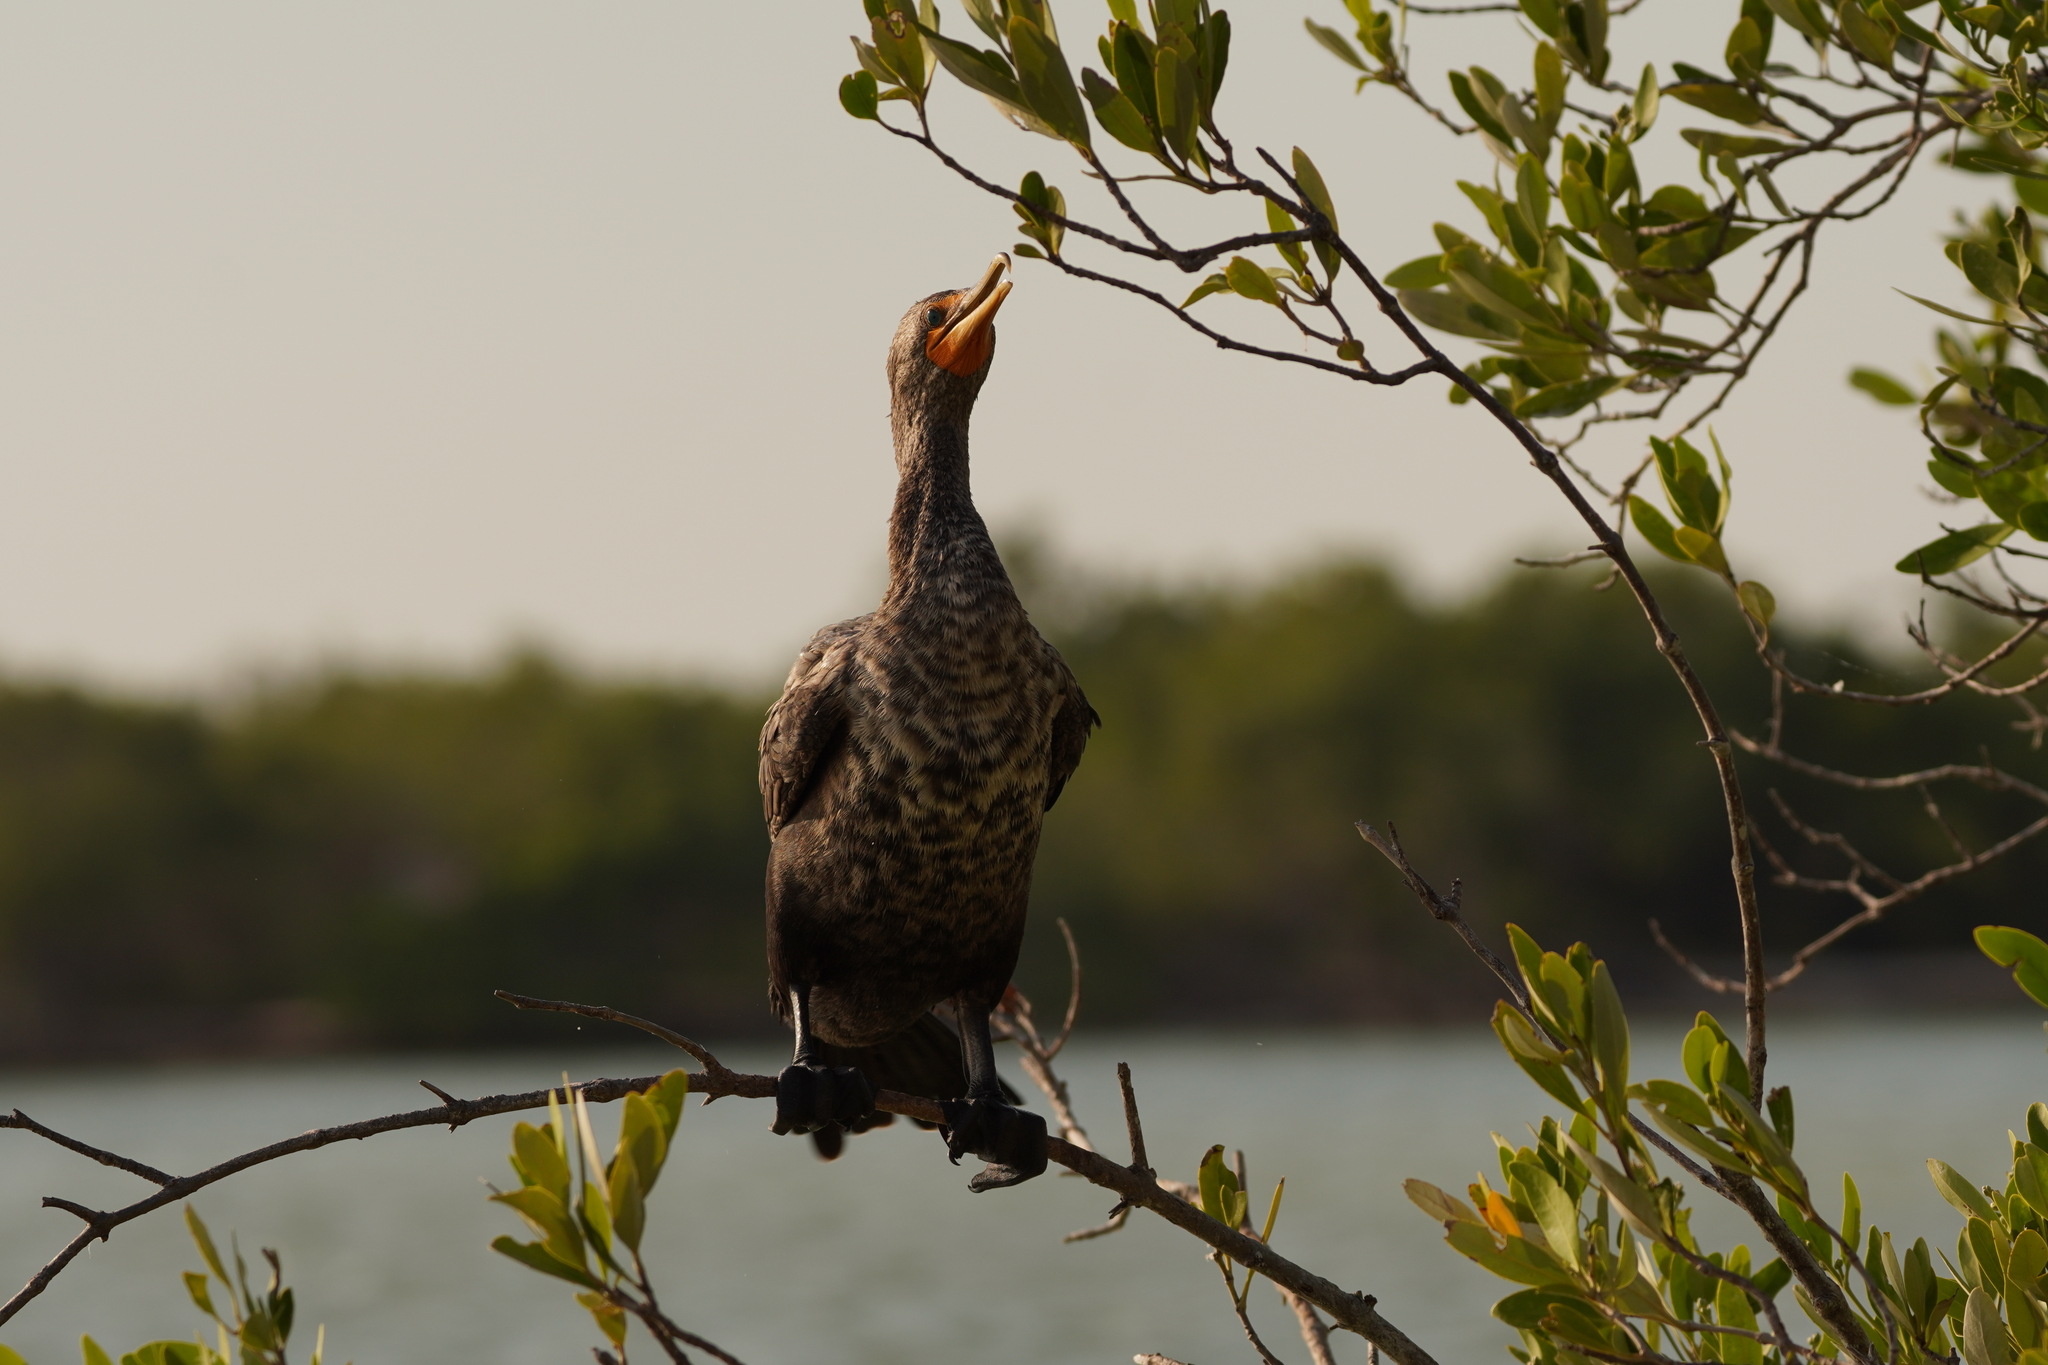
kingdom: Animalia
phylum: Chordata
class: Aves
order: Suliformes
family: Phalacrocoracidae
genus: Phalacrocorax
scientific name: Phalacrocorax auritus
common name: Double-crested cormorant
